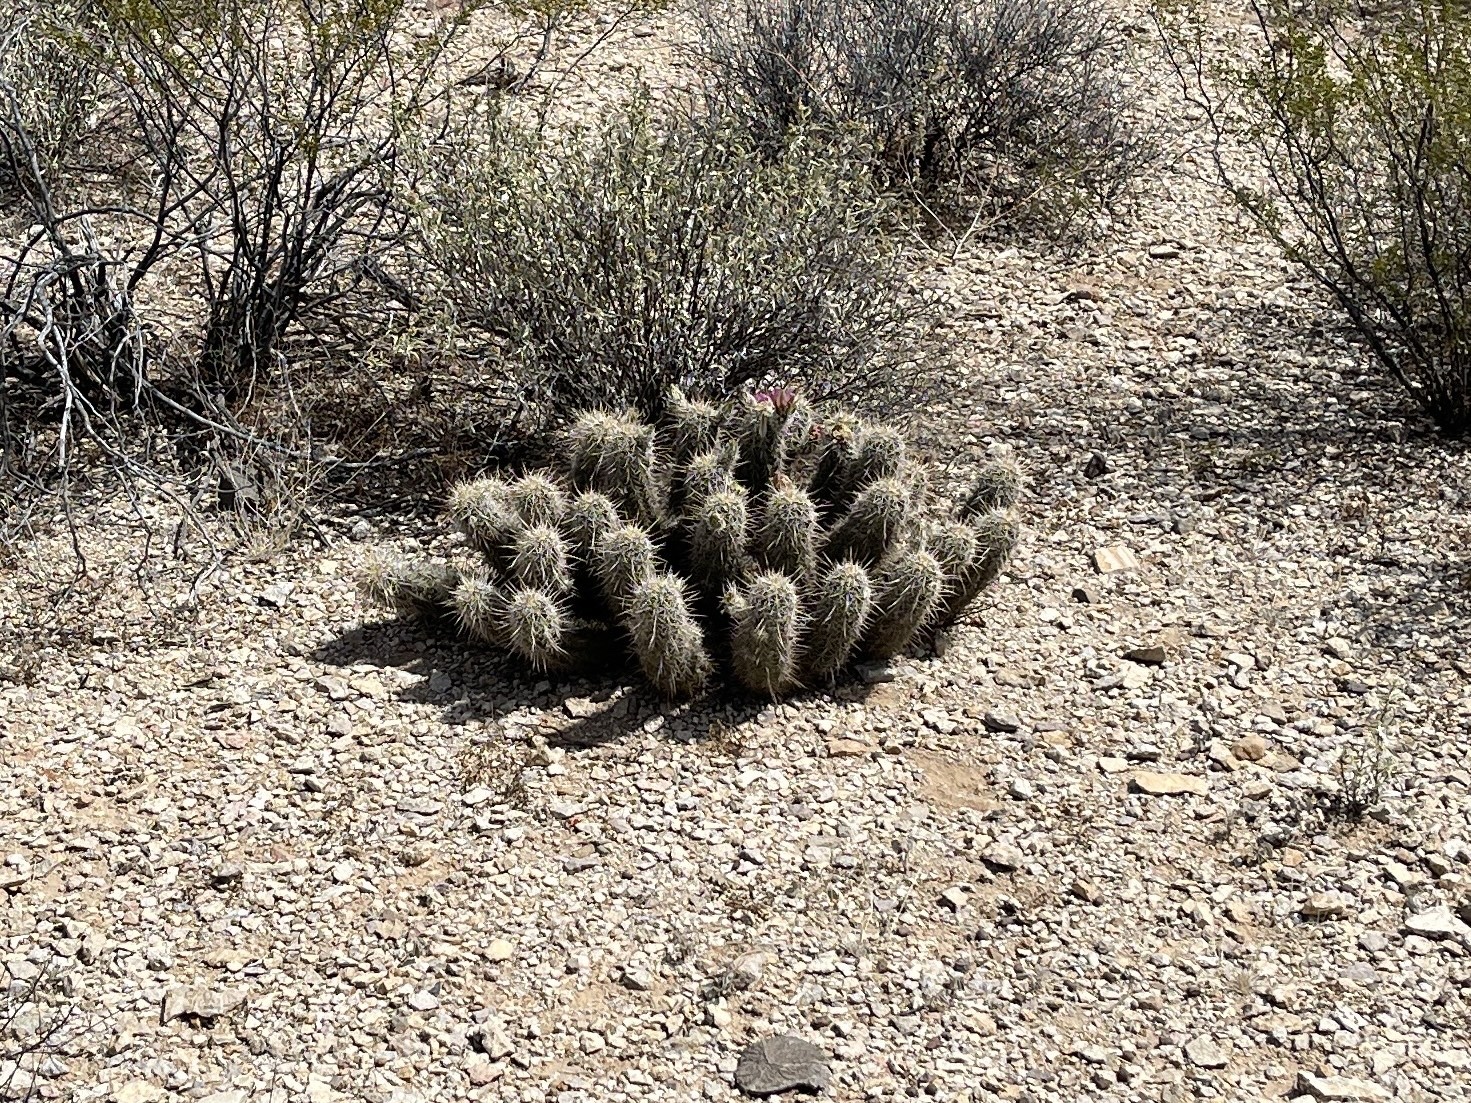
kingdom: Plantae
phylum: Tracheophyta
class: Magnoliopsida
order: Caryophyllales
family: Cactaceae
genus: Echinocereus
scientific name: Echinocereus fasciculatus
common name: Bundle hedgehog
